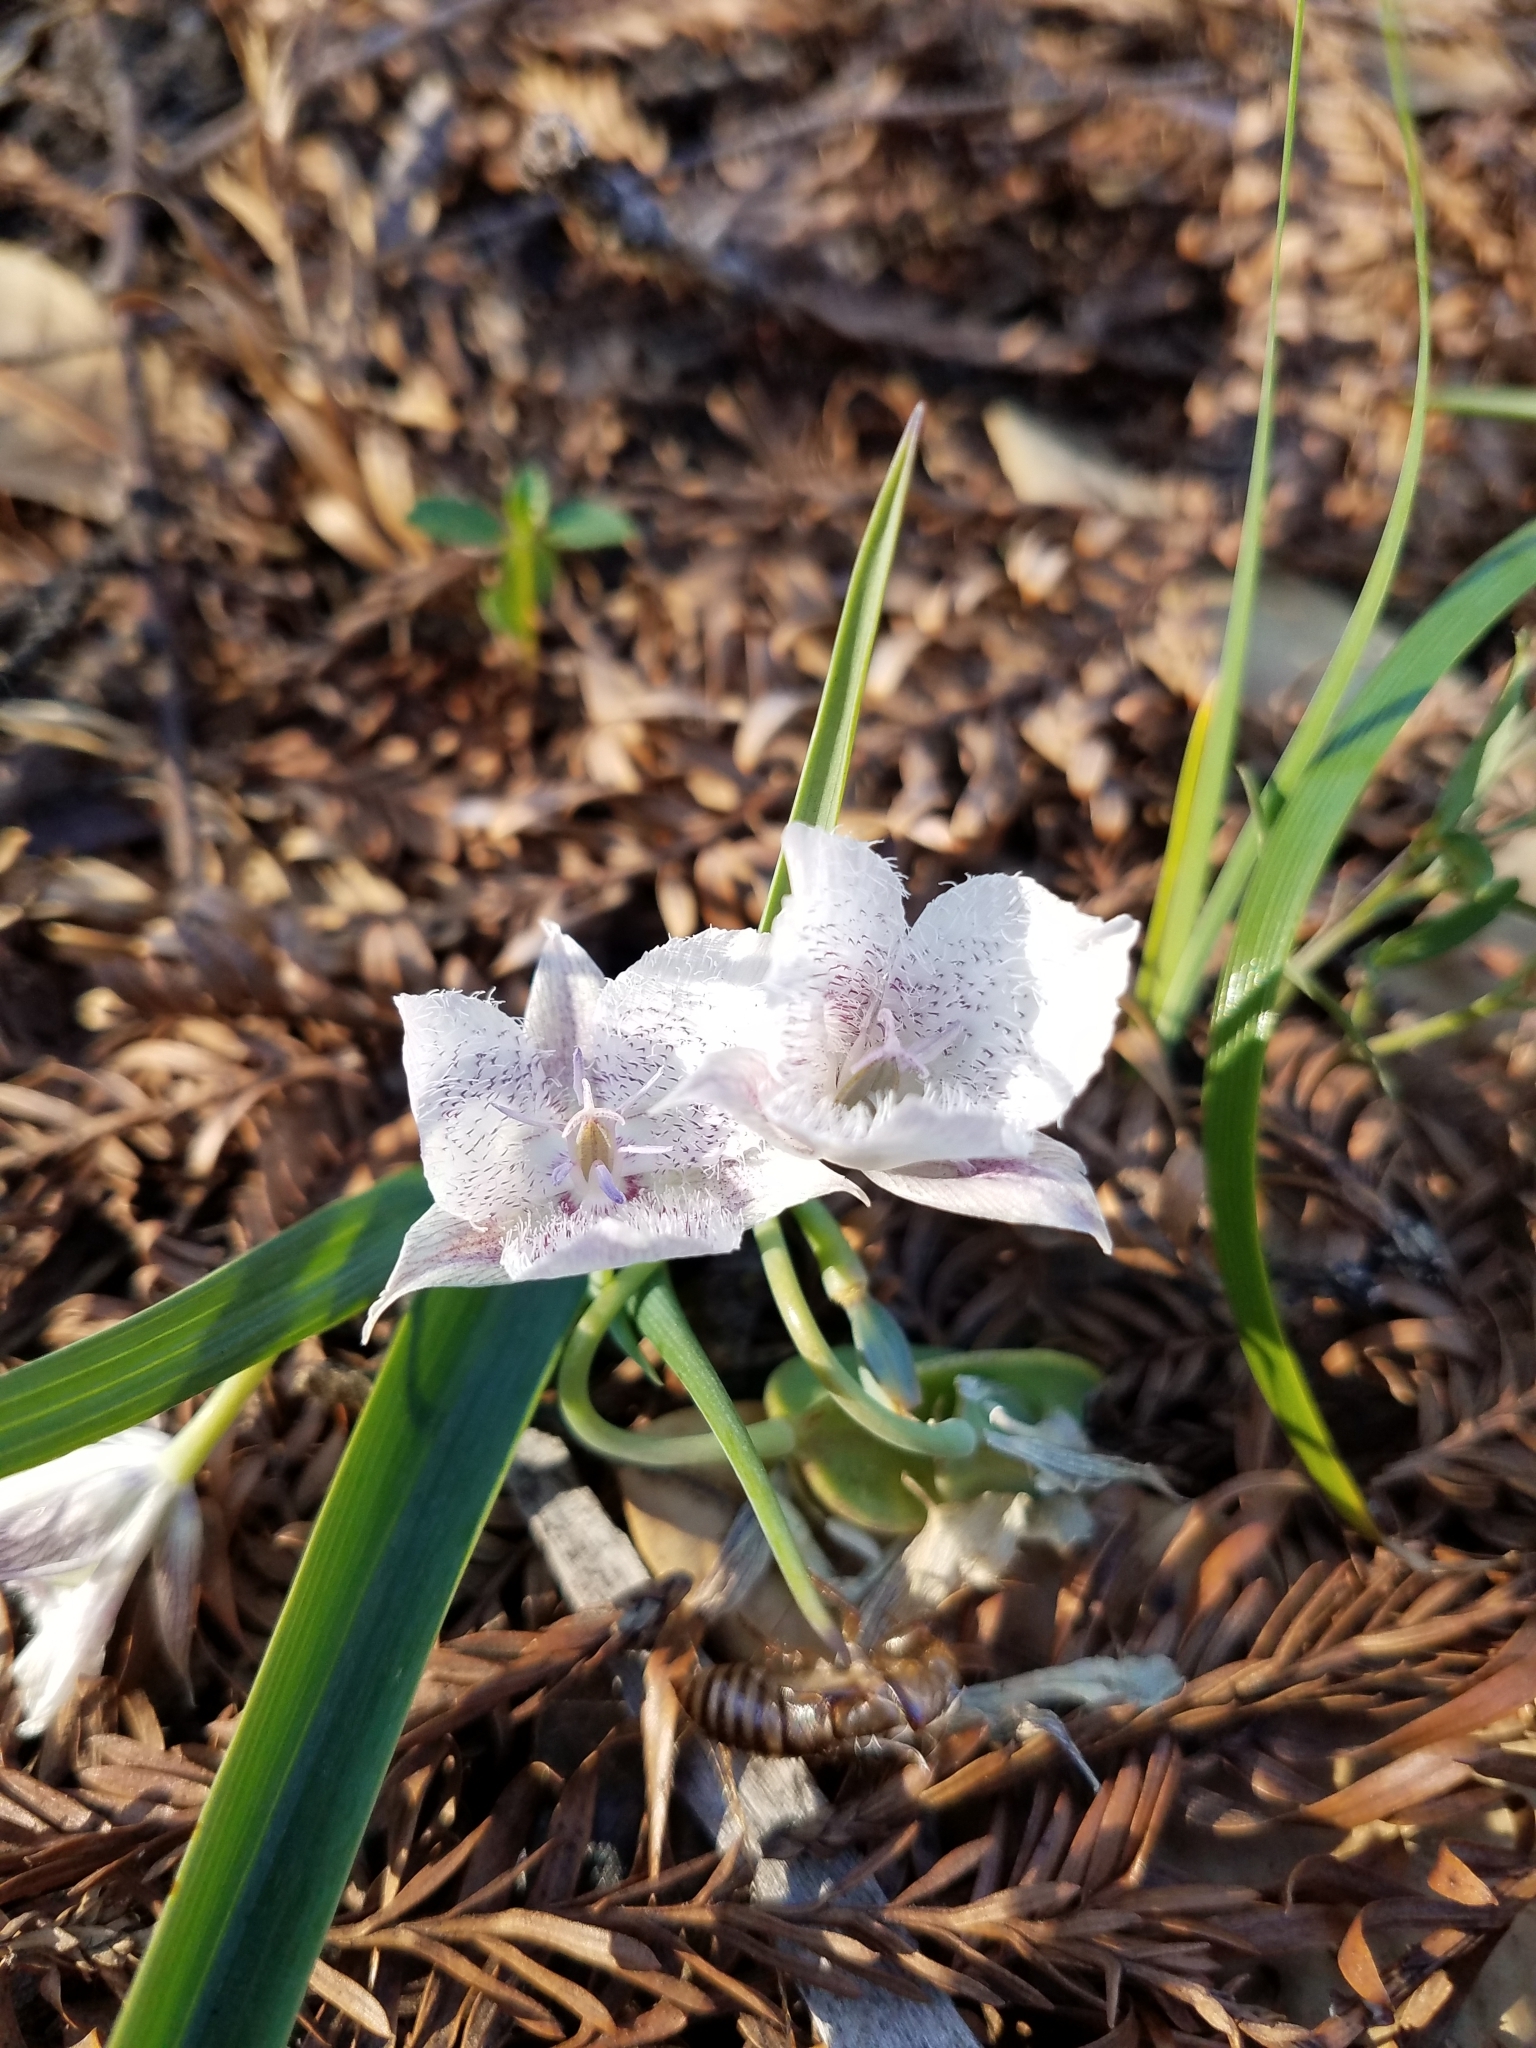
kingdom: Plantae
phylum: Tracheophyta
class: Liliopsida
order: Liliales
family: Liliaceae
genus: Calochortus
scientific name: Calochortus tolmiei
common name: Pussy-ears
